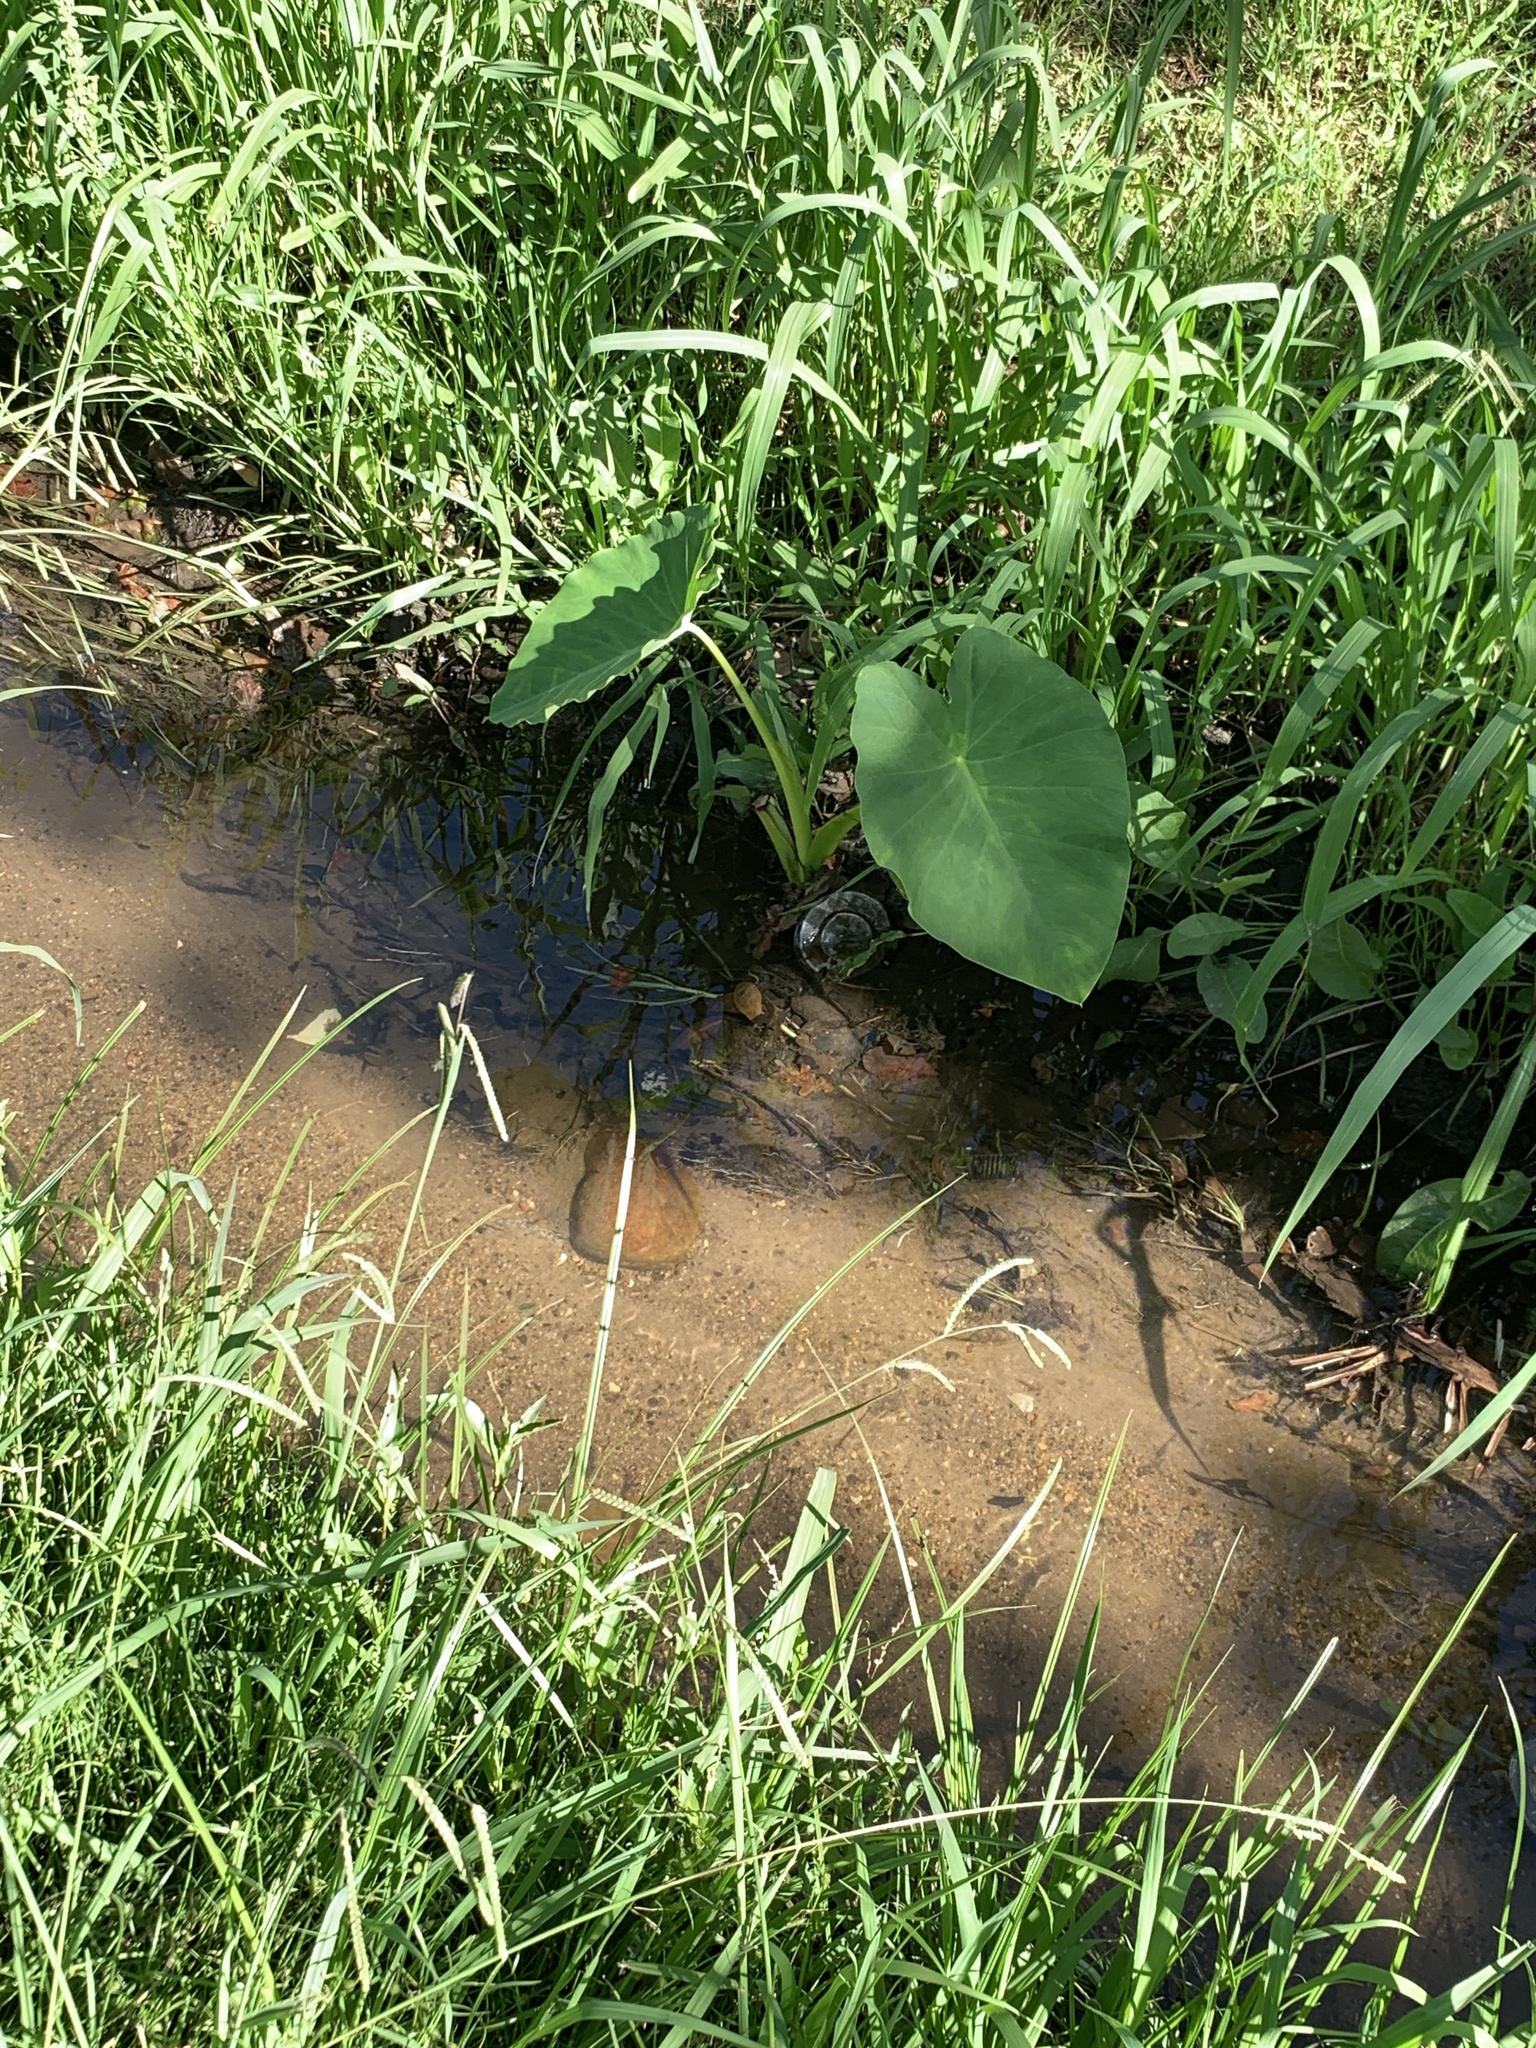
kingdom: Plantae
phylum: Tracheophyta
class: Liliopsida
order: Alismatales
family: Araceae
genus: Colocasia
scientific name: Colocasia esculenta
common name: Taro
